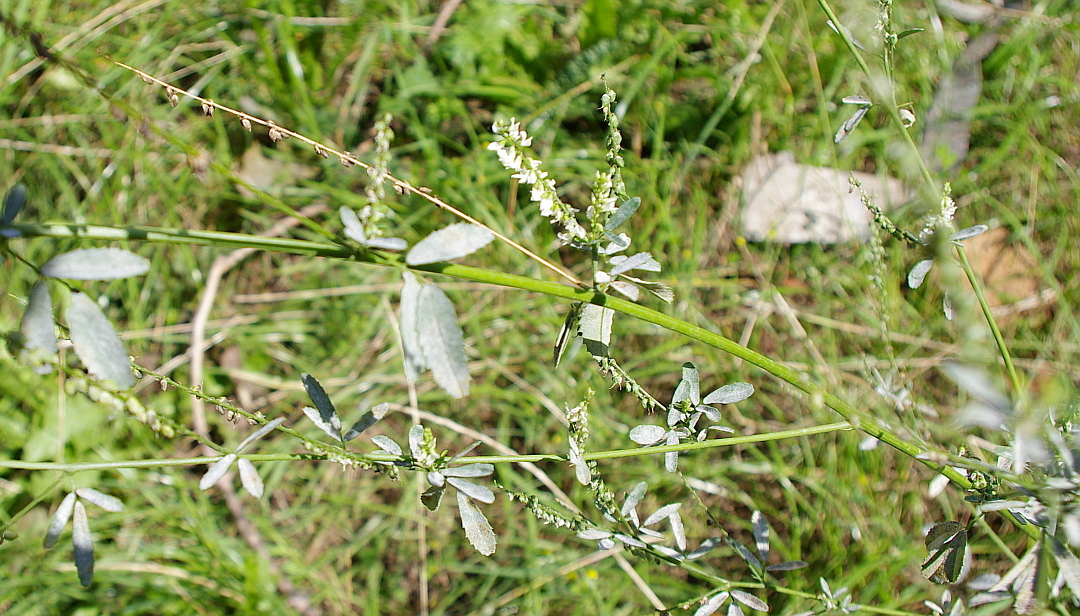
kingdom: Plantae
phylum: Tracheophyta
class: Magnoliopsida
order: Fabales
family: Fabaceae
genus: Melilotus
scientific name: Melilotus albus
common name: White melilot
